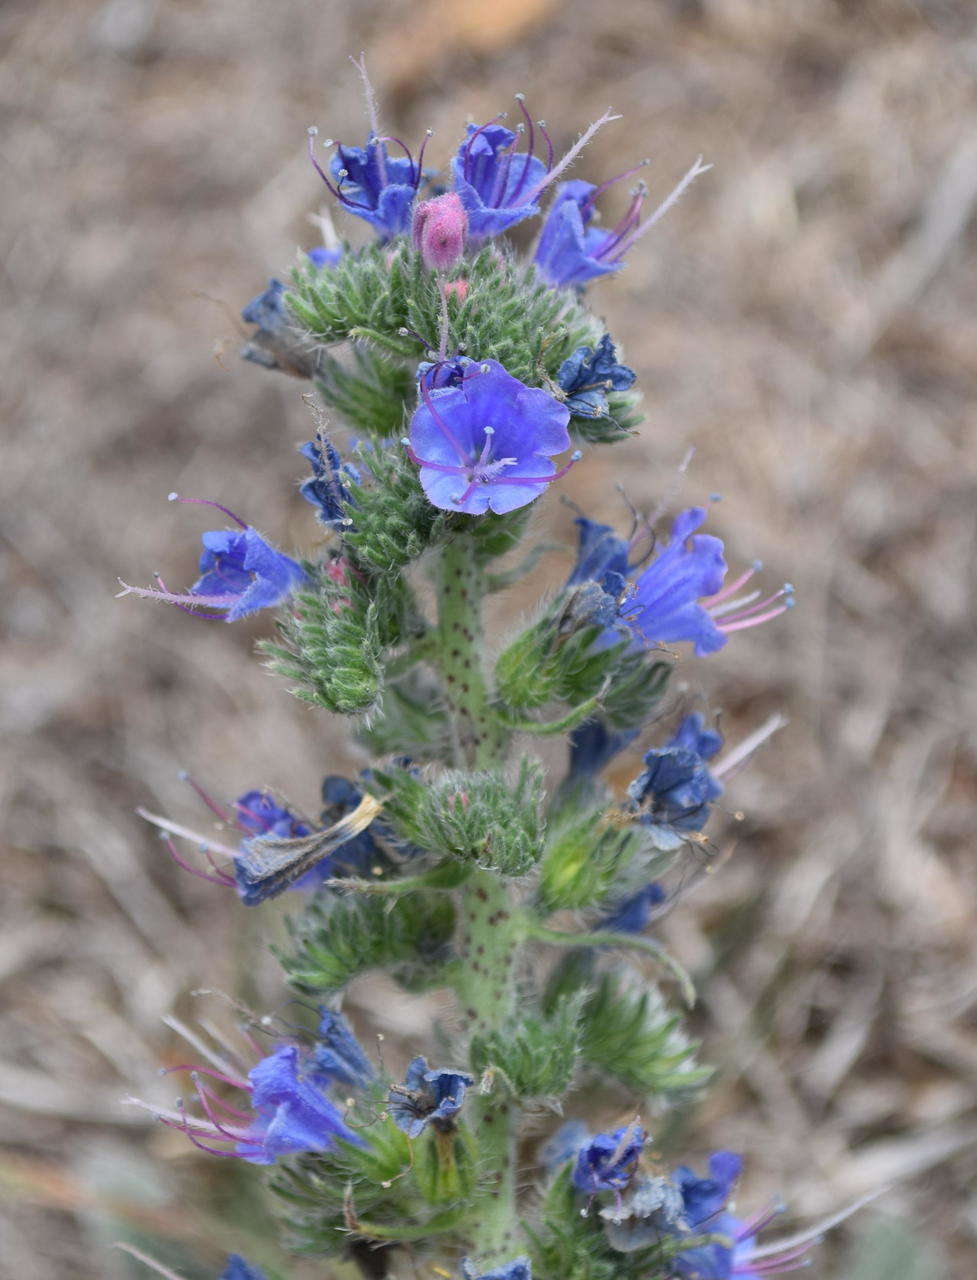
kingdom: Plantae
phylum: Tracheophyta
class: Magnoliopsida
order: Boraginales
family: Boraginaceae
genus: Echium
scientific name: Echium vulgare
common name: Common viper's bugloss
